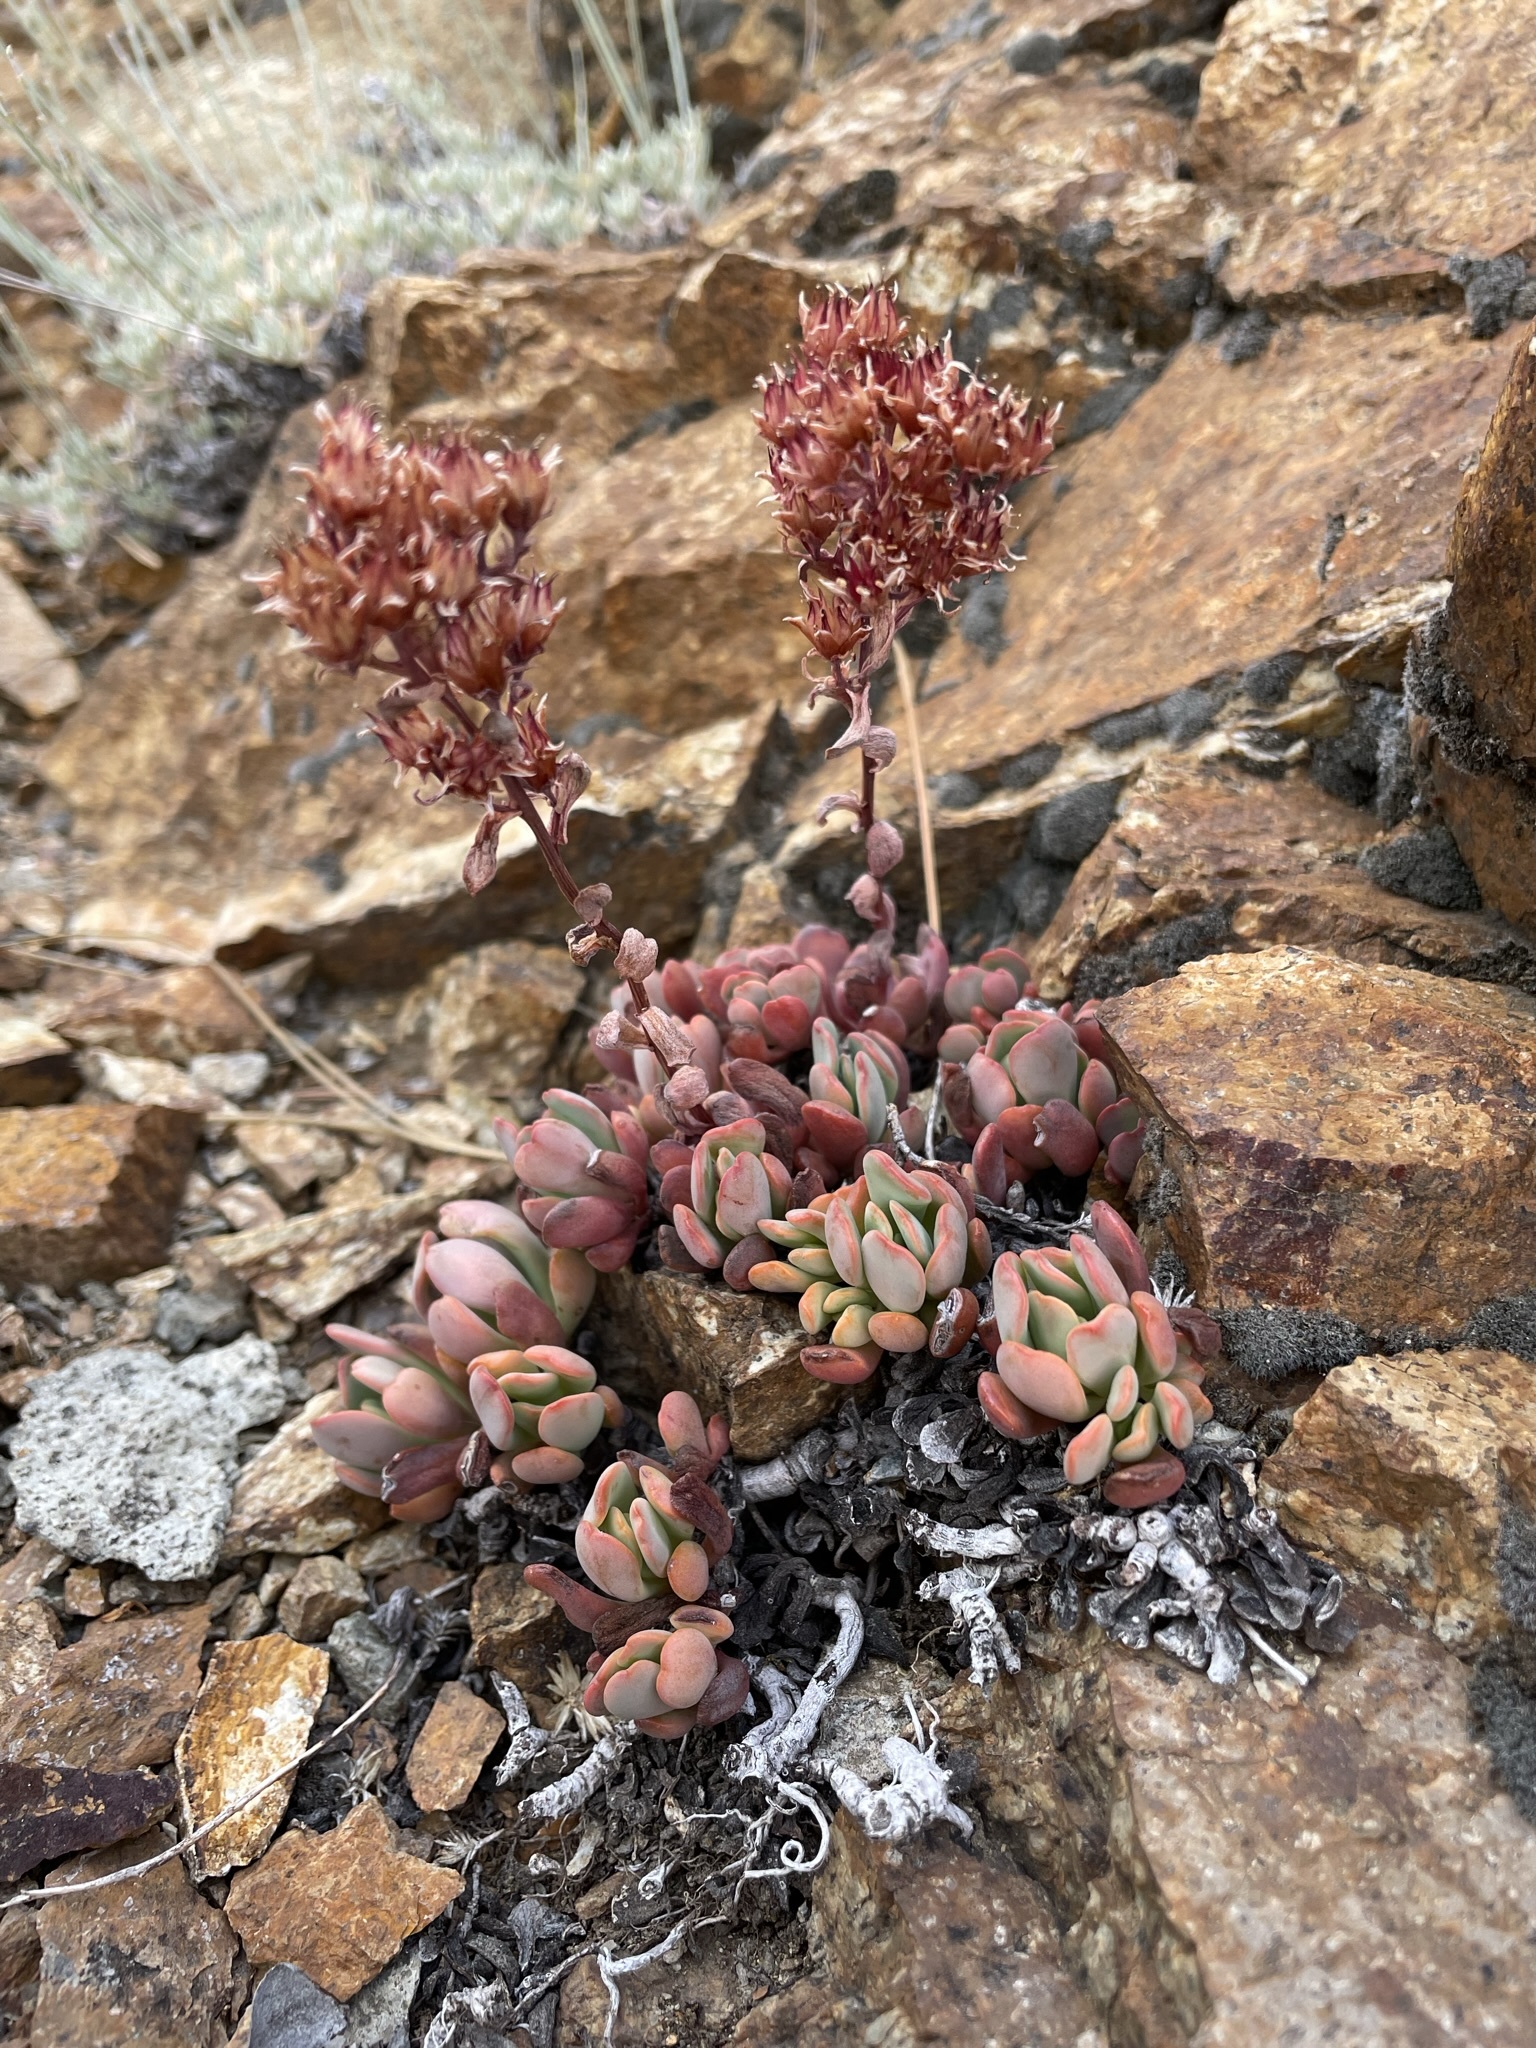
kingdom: Plantae
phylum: Tracheophyta
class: Magnoliopsida
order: Saxifragales
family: Crassulaceae
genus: Sedum
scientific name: Sedum obtusatum
